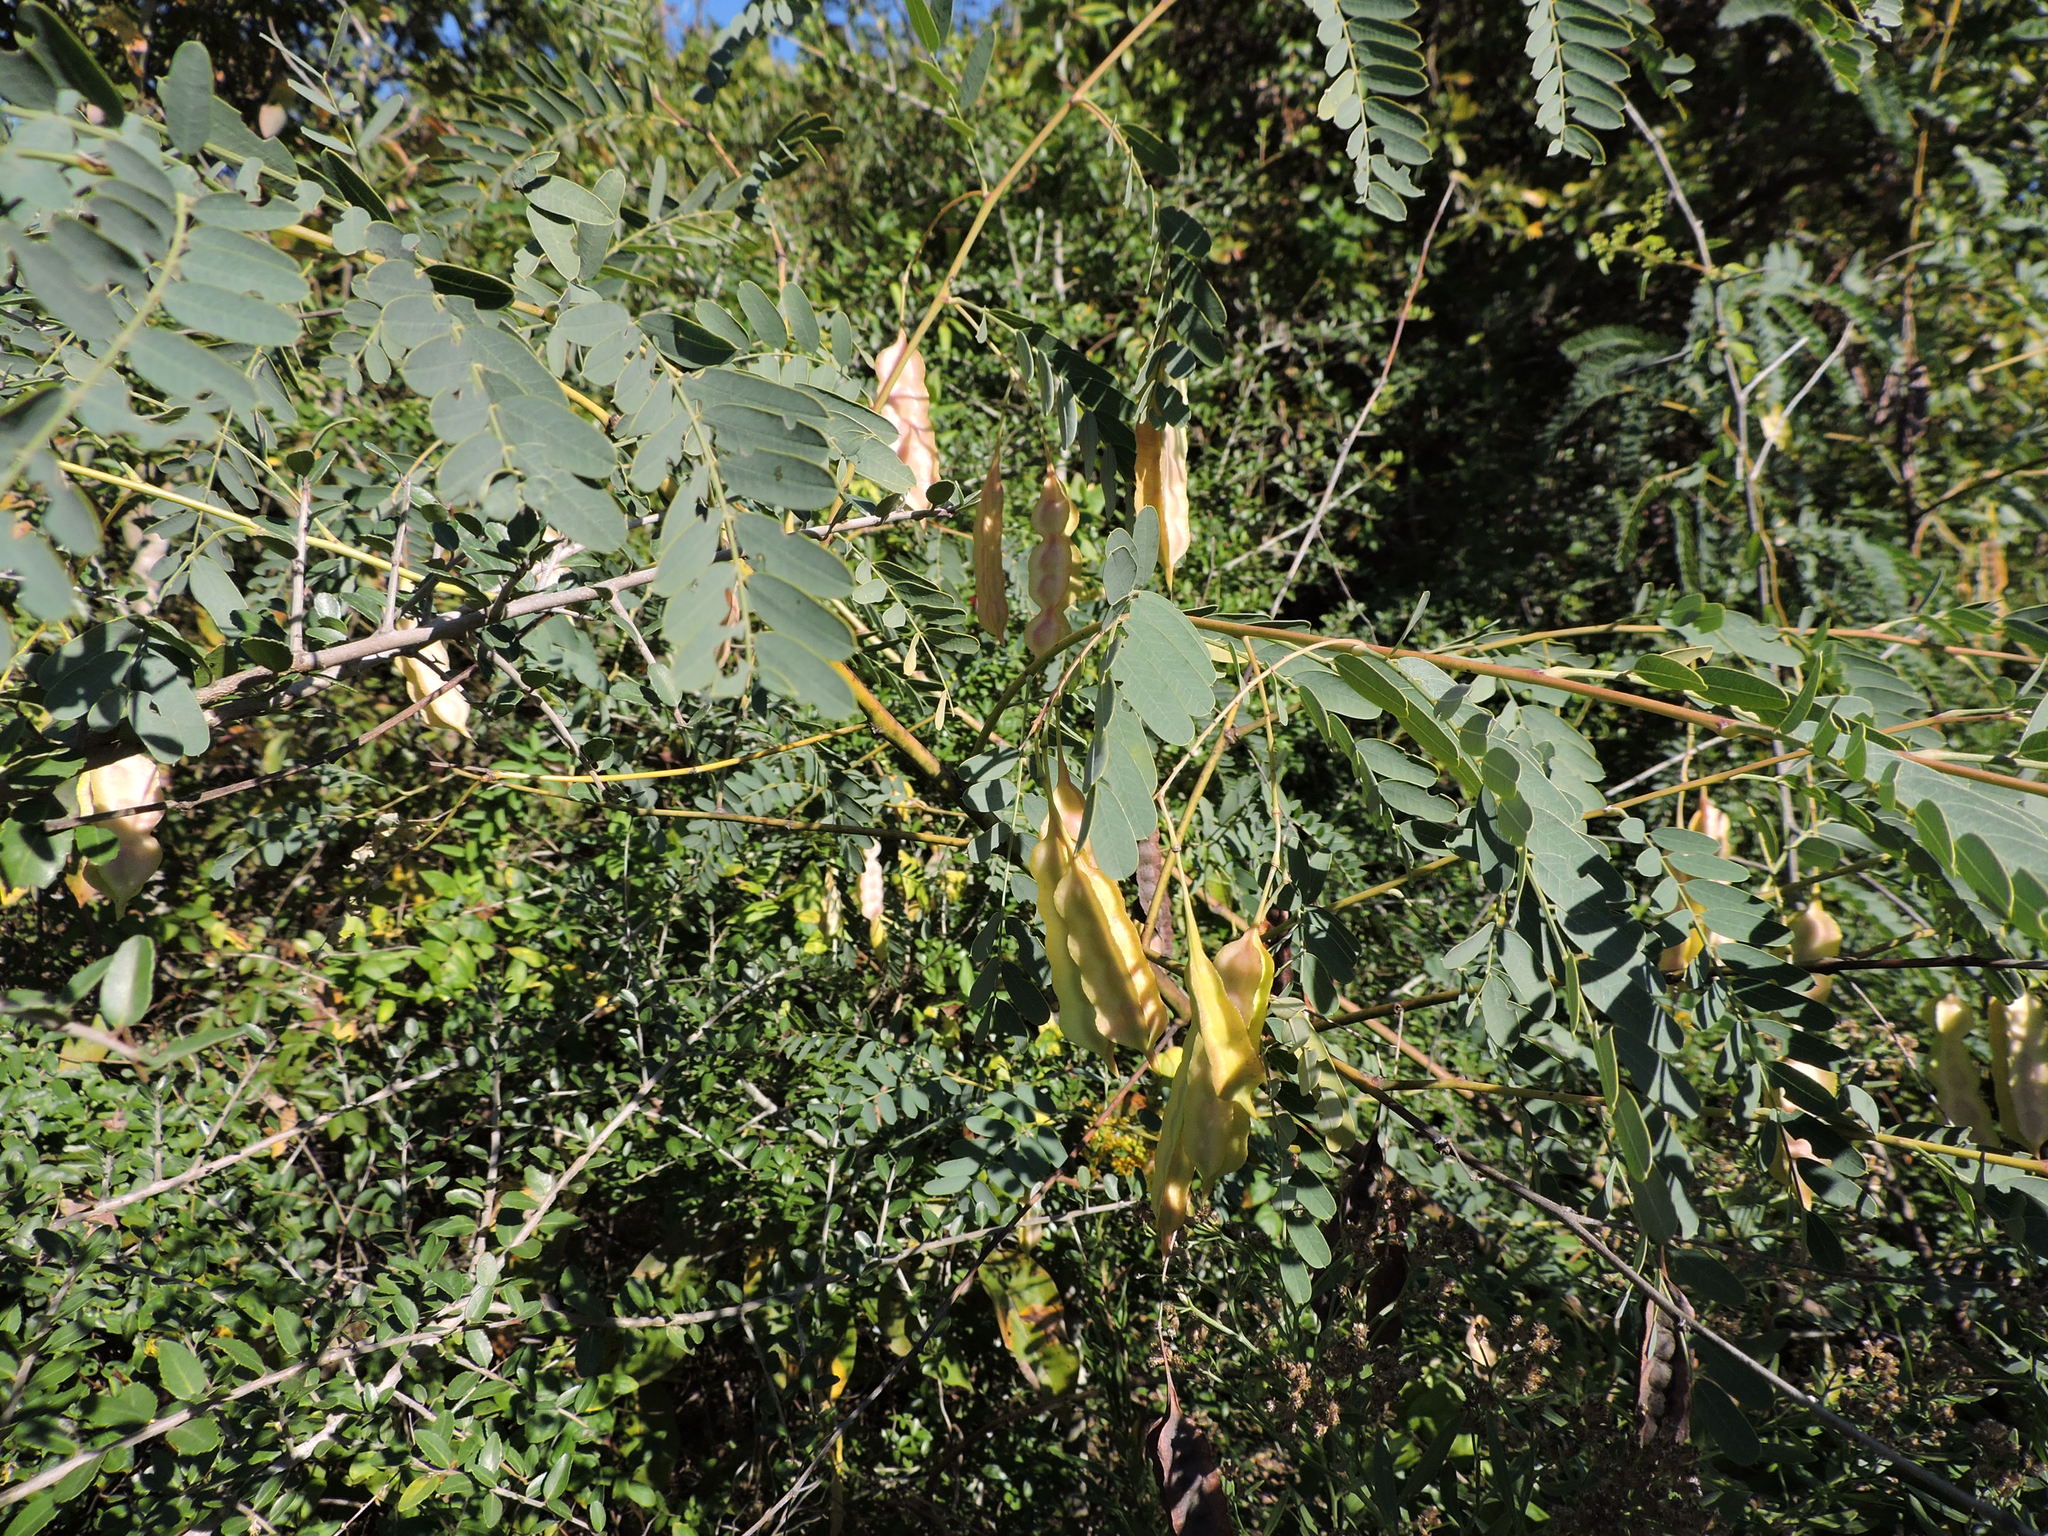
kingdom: Plantae
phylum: Tracheophyta
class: Magnoliopsida
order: Fabales
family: Fabaceae
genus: Sesbania
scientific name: Sesbania drummondii
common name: Poison-bean
